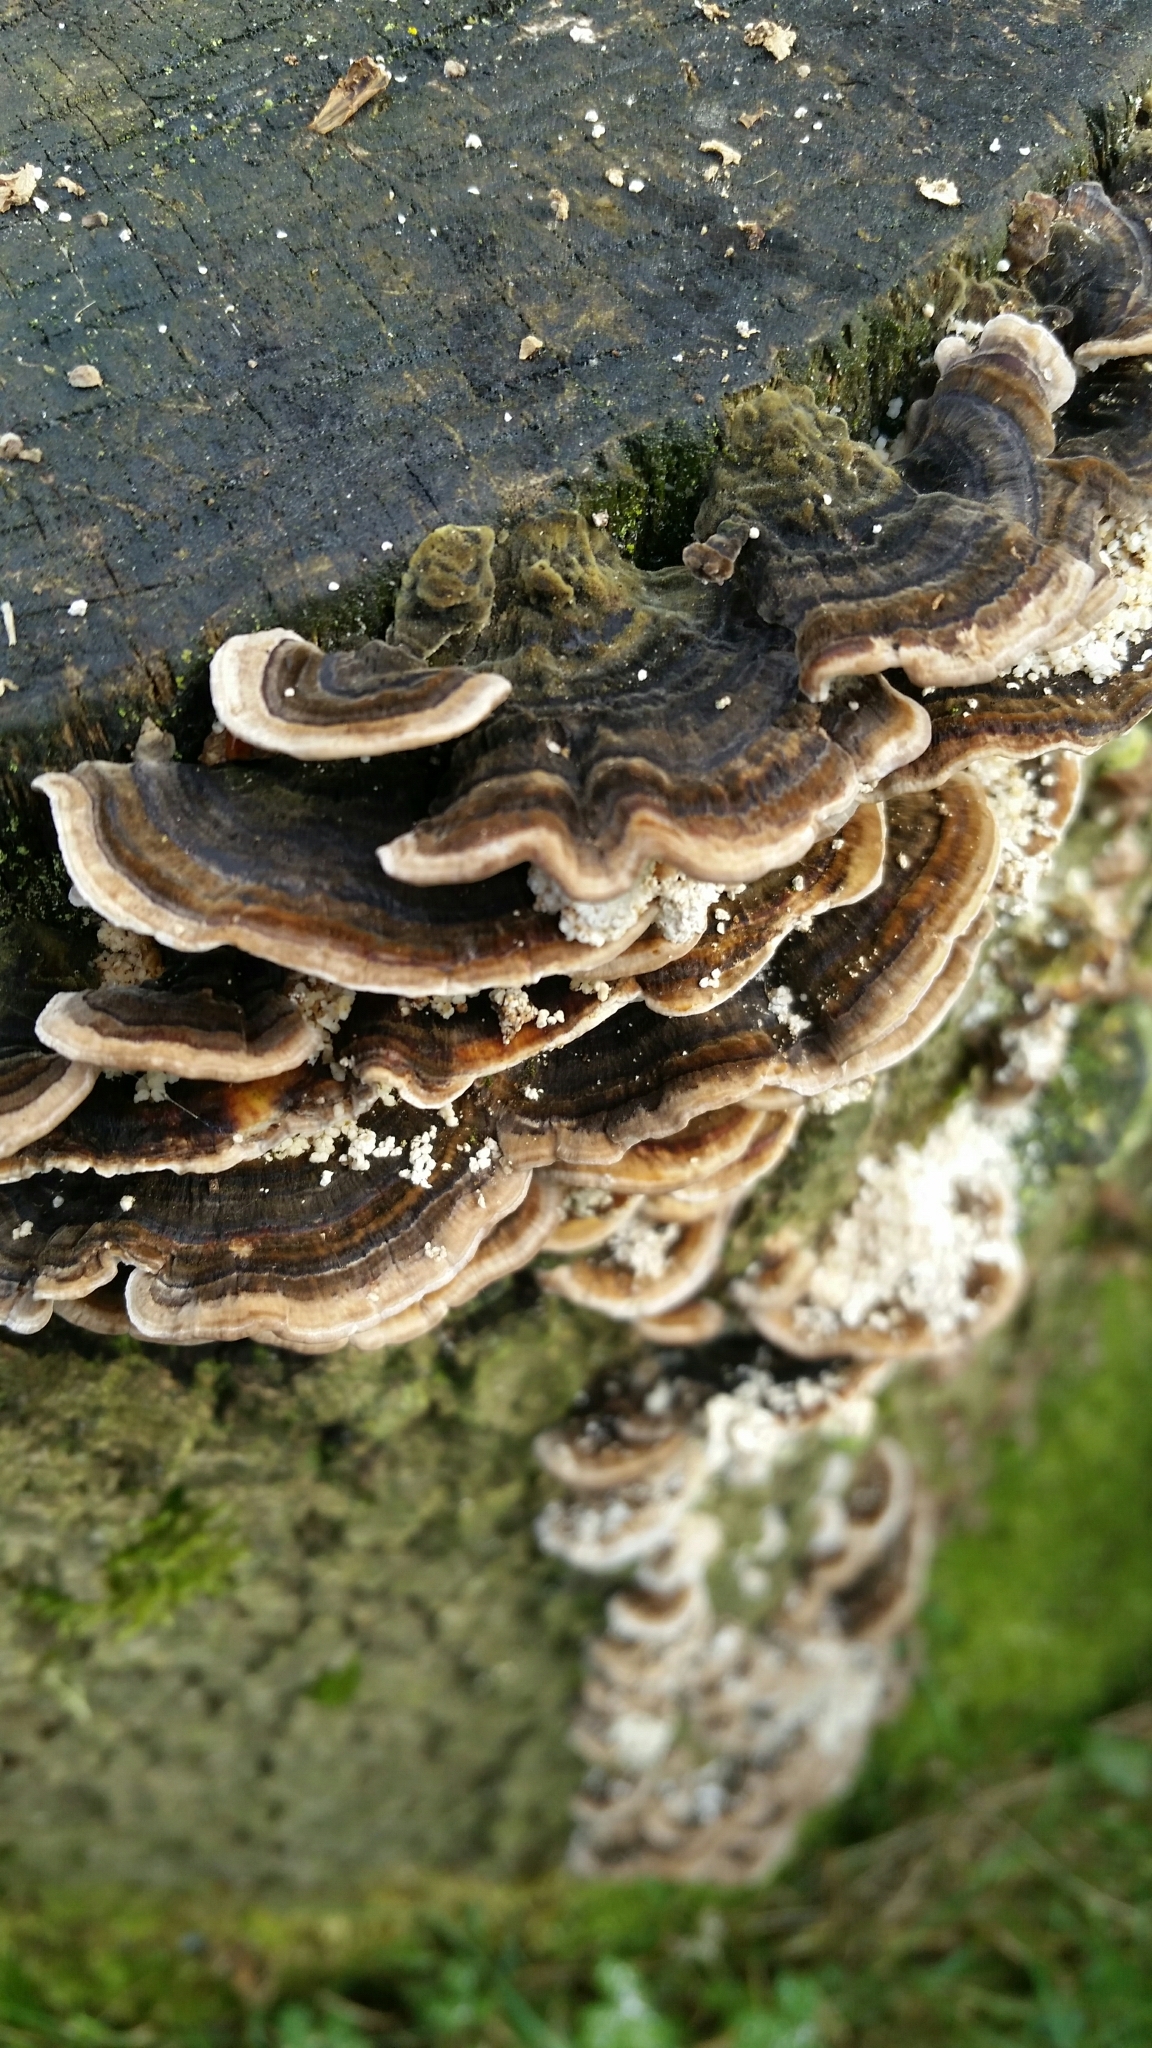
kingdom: Fungi
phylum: Basidiomycota
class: Agaricomycetes
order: Polyporales
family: Polyporaceae
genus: Trametes
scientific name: Trametes versicolor
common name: Turkeytail
